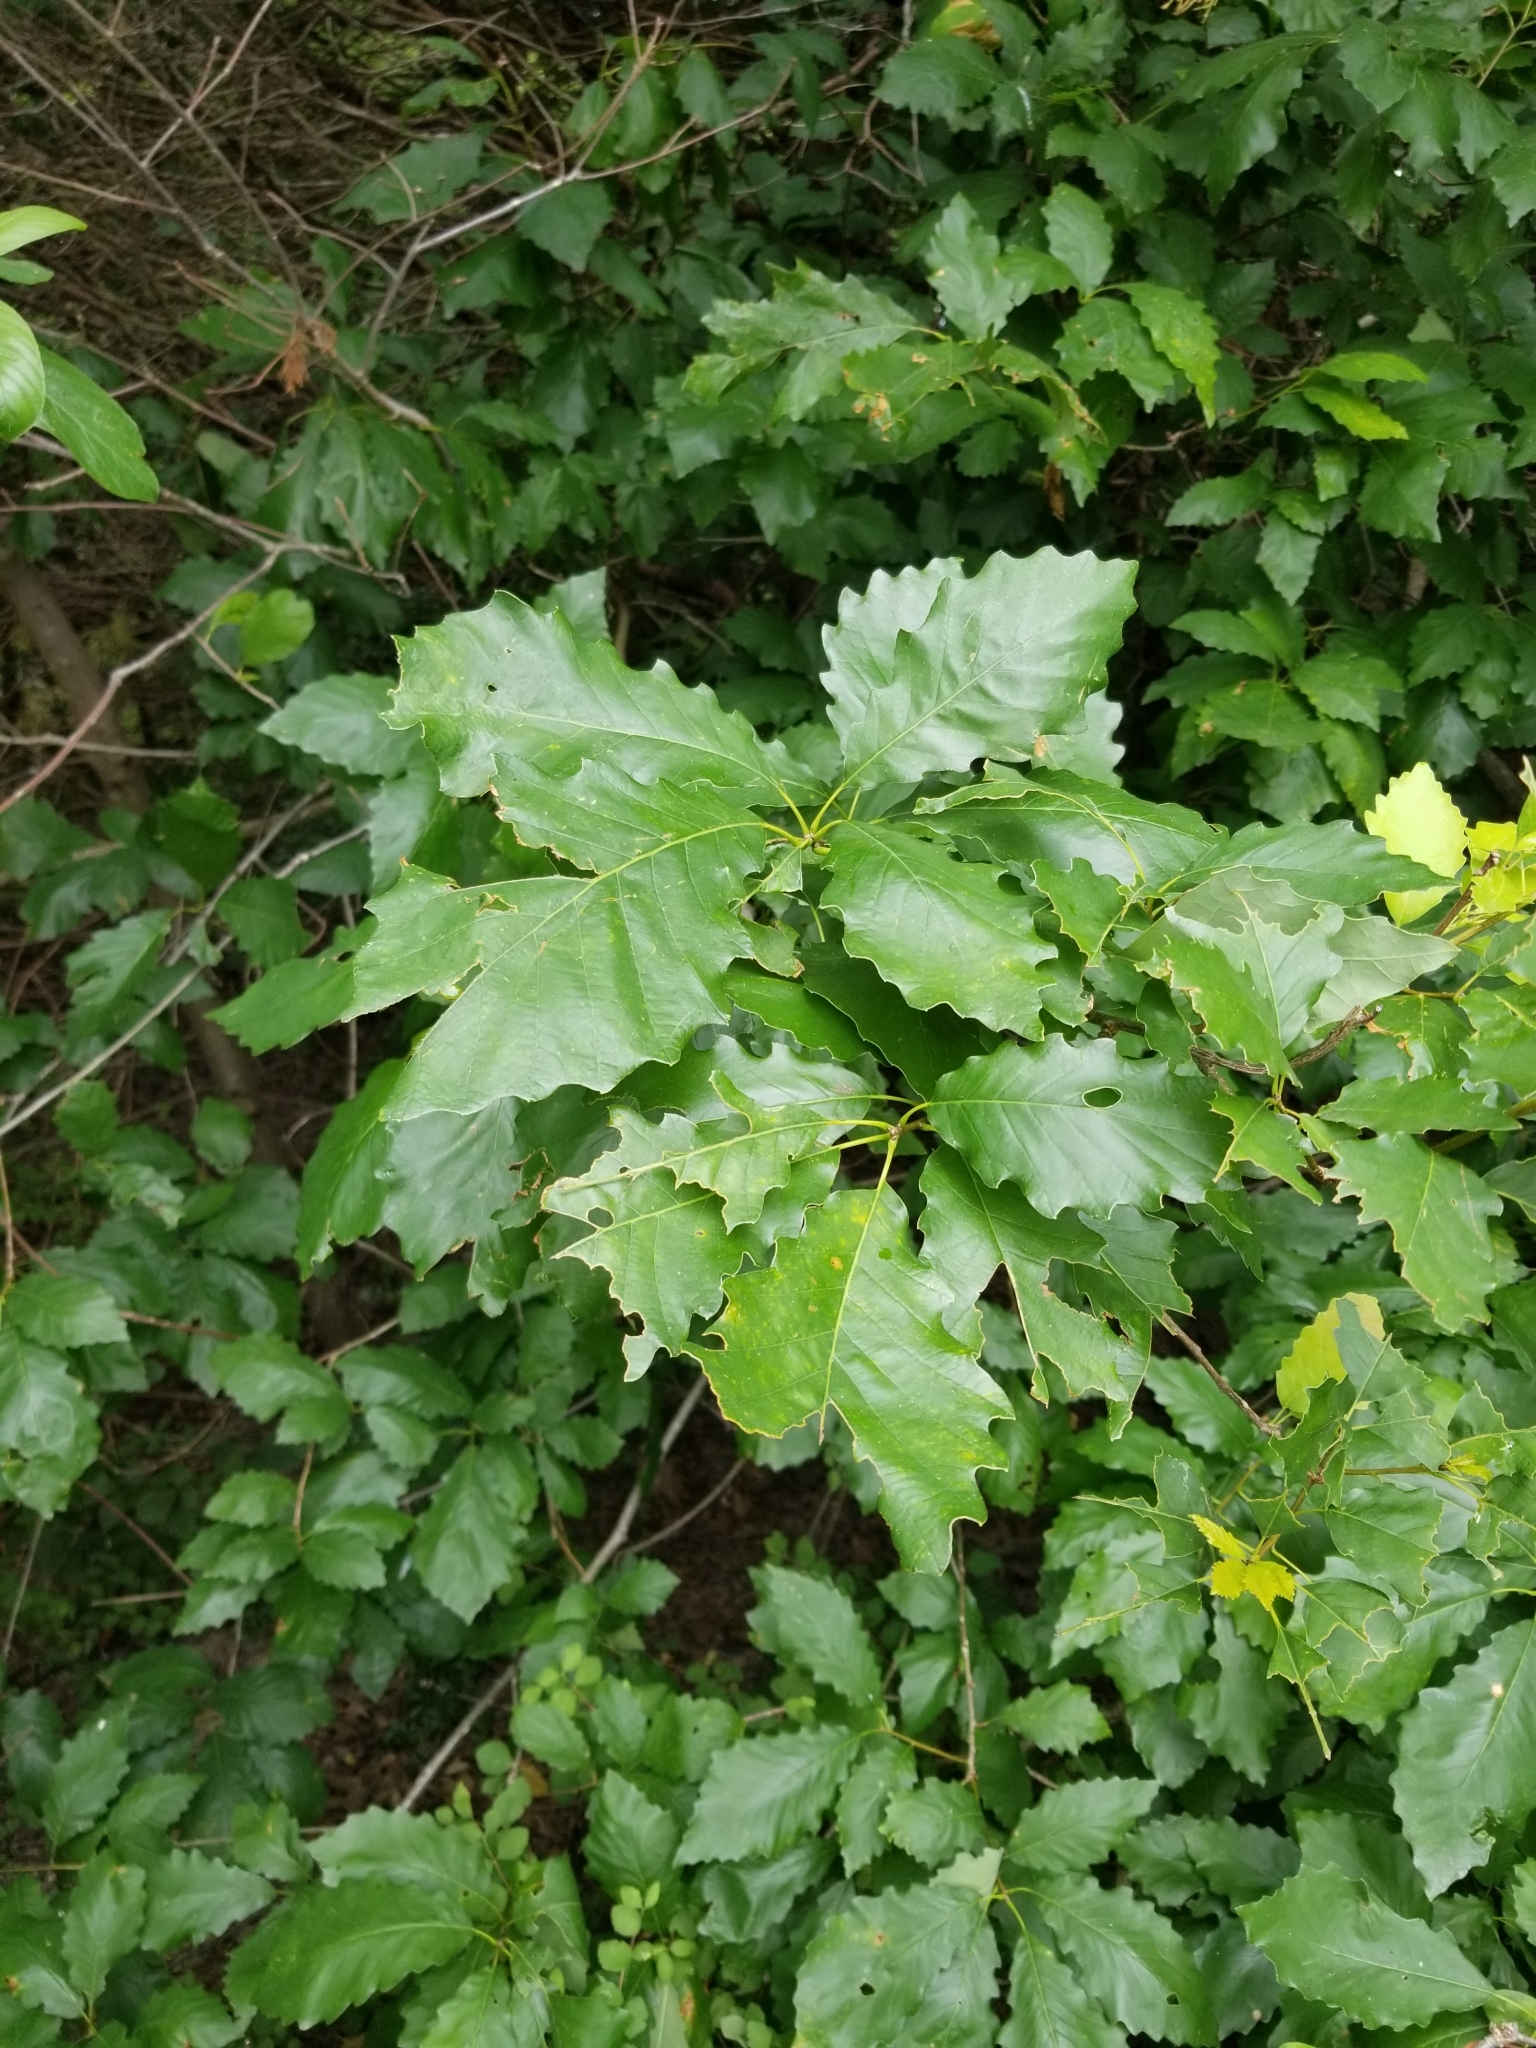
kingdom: Plantae
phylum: Tracheophyta
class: Magnoliopsida
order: Fagales
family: Fagaceae
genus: Quercus
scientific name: Quercus muehlenbergii
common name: Chinkapin oak
